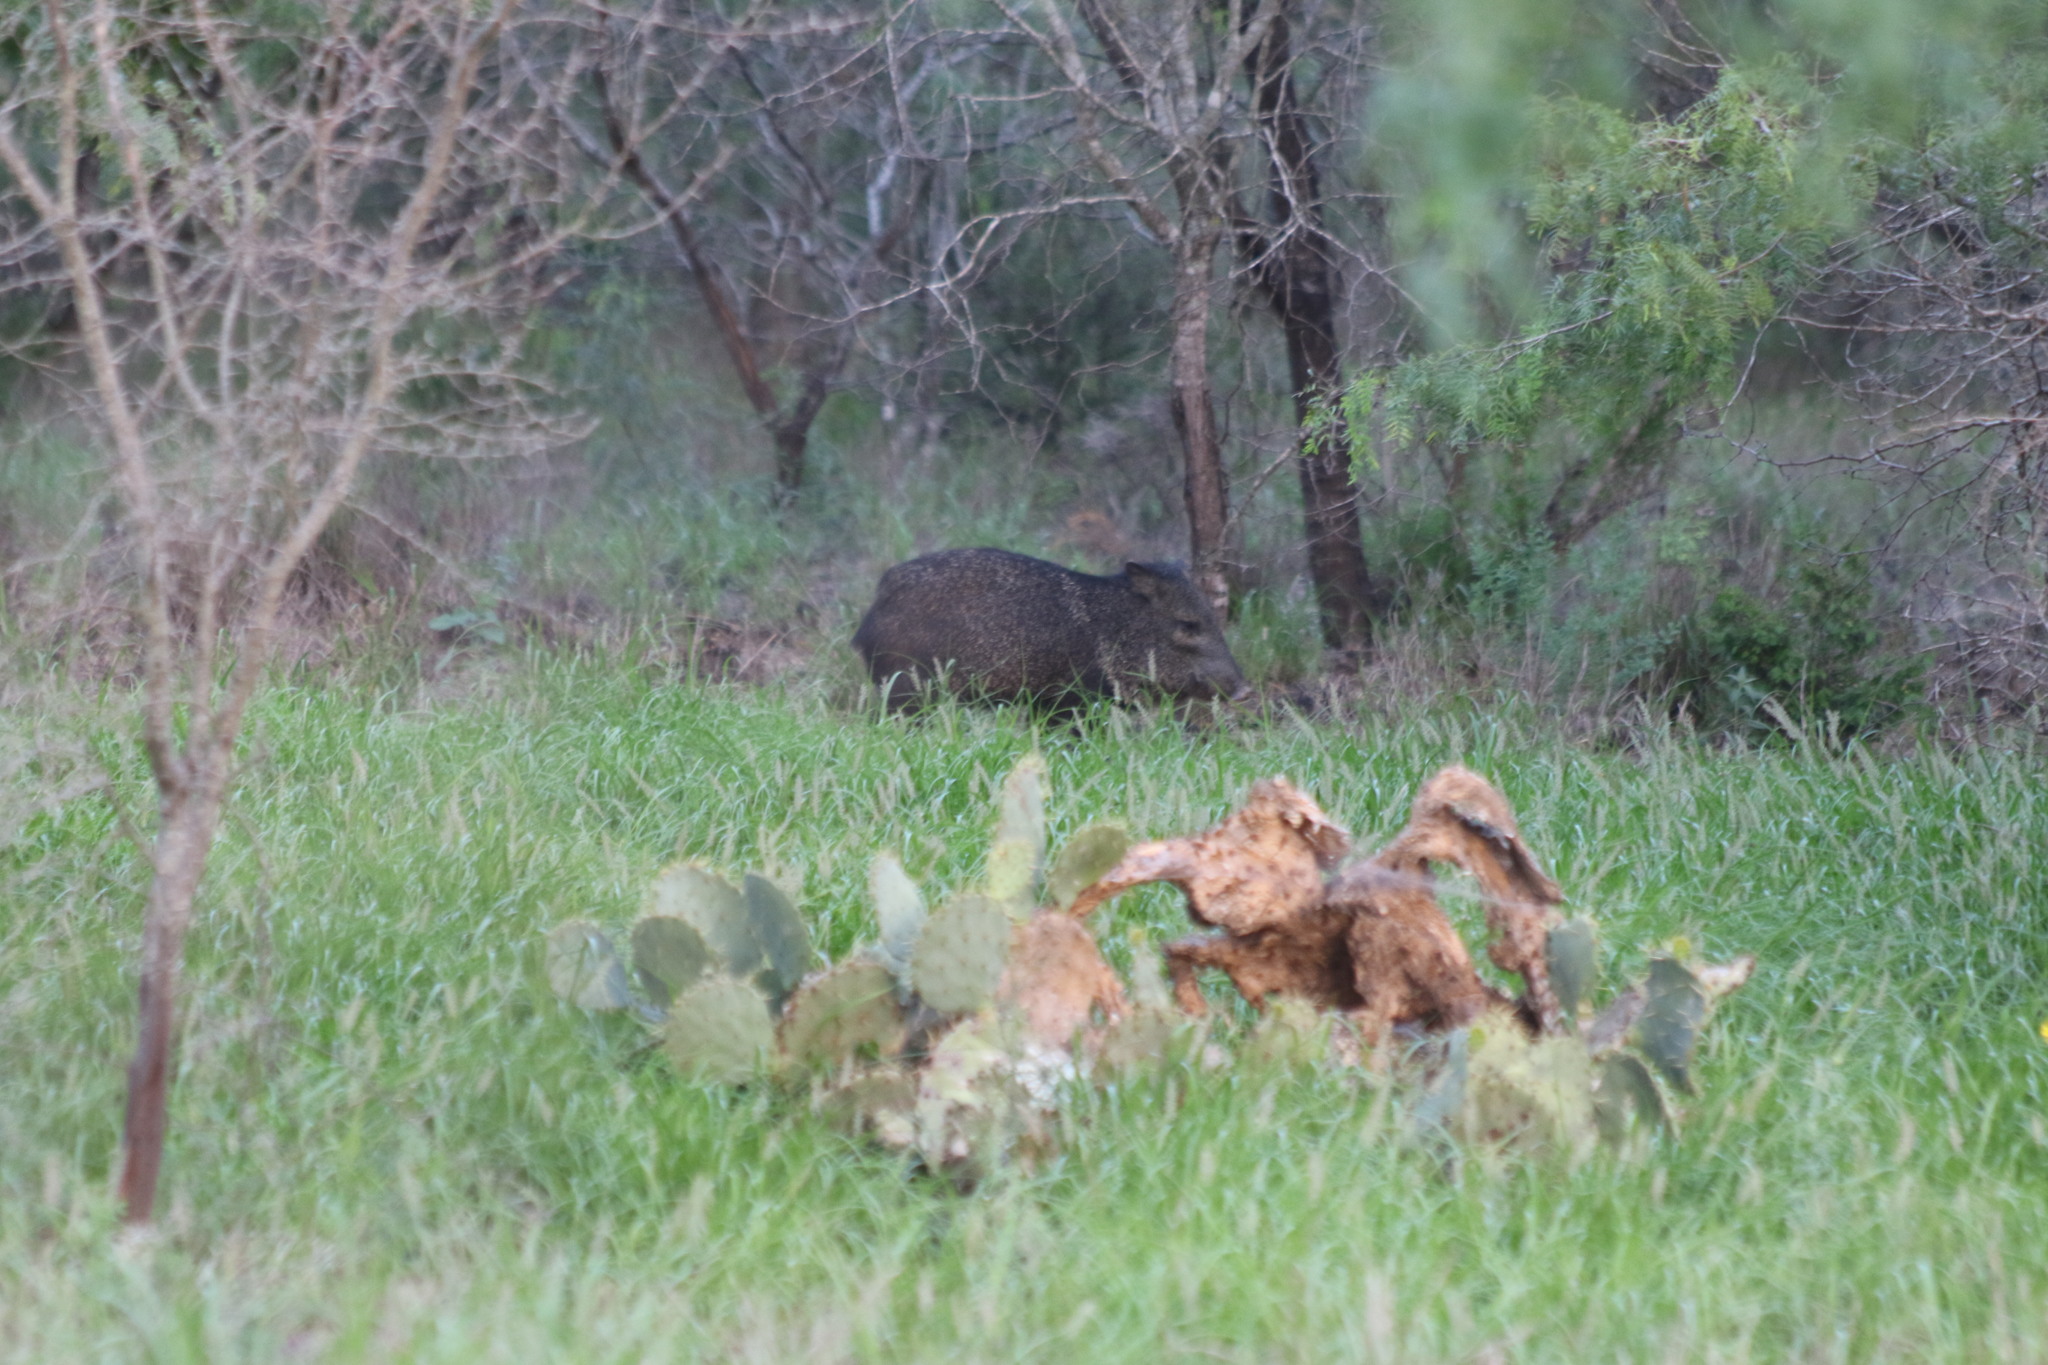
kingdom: Animalia
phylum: Chordata
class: Mammalia
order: Artiodactyla
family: Tayassuidae
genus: Pecari
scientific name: Pecari tajacu
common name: Collared peccary
